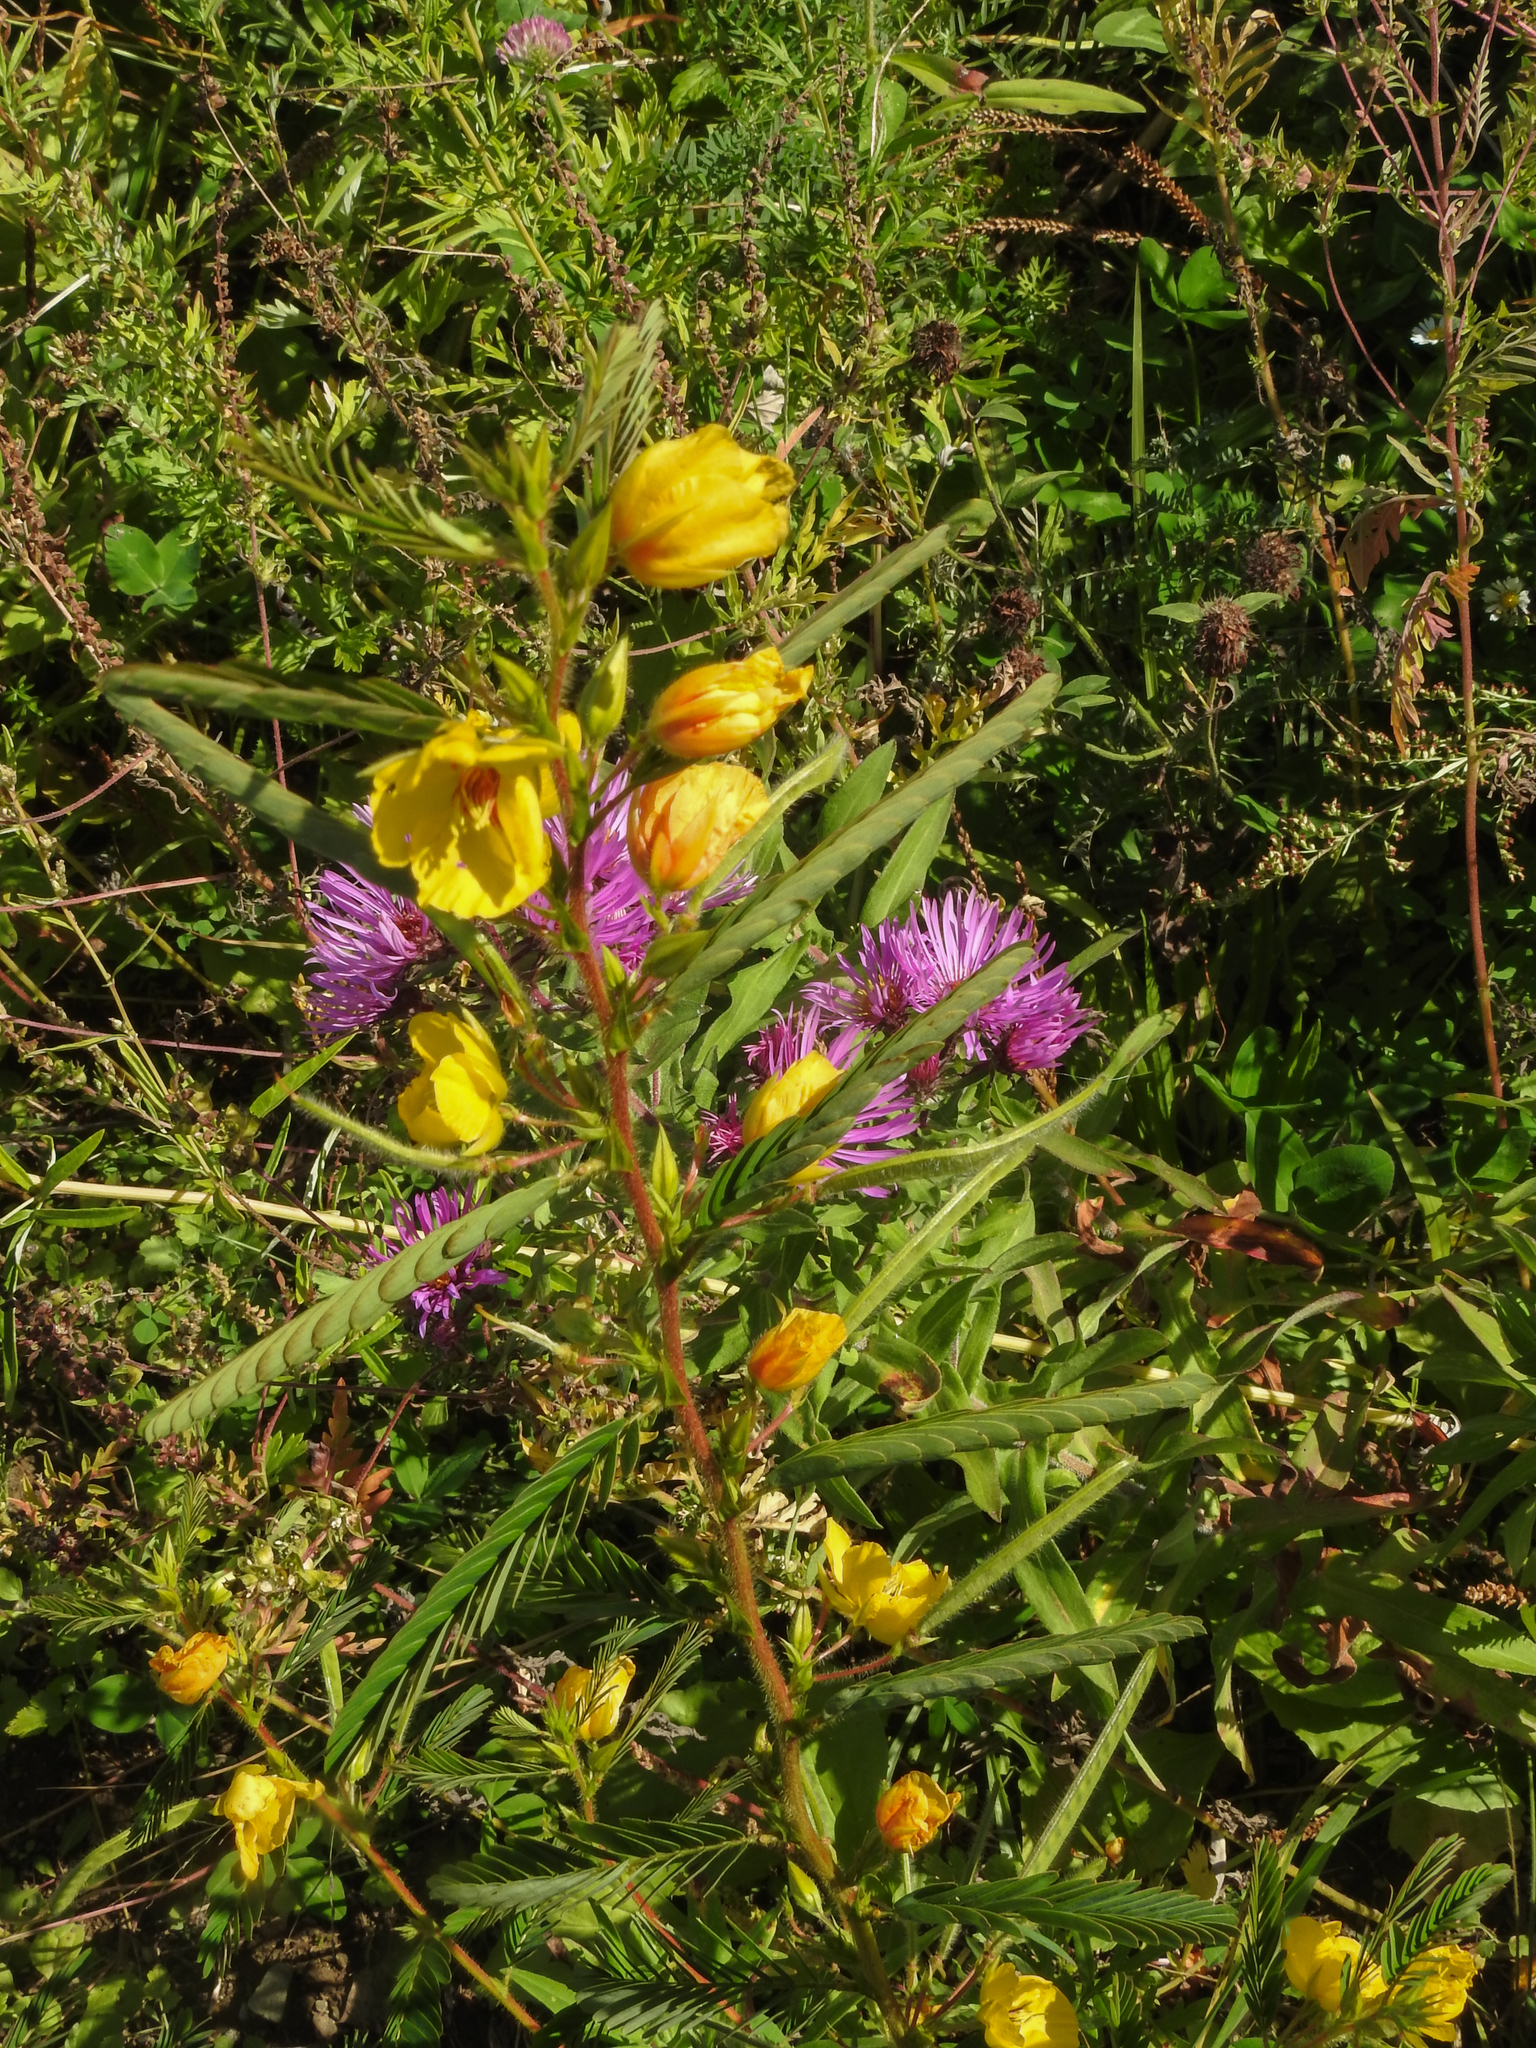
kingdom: Plantae
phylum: Tracheophyta
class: Magnoliopsida
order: Fabales
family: Fabaceae
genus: Chamaecrista
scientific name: Chamaecrista fasciculata
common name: Golden cassia
